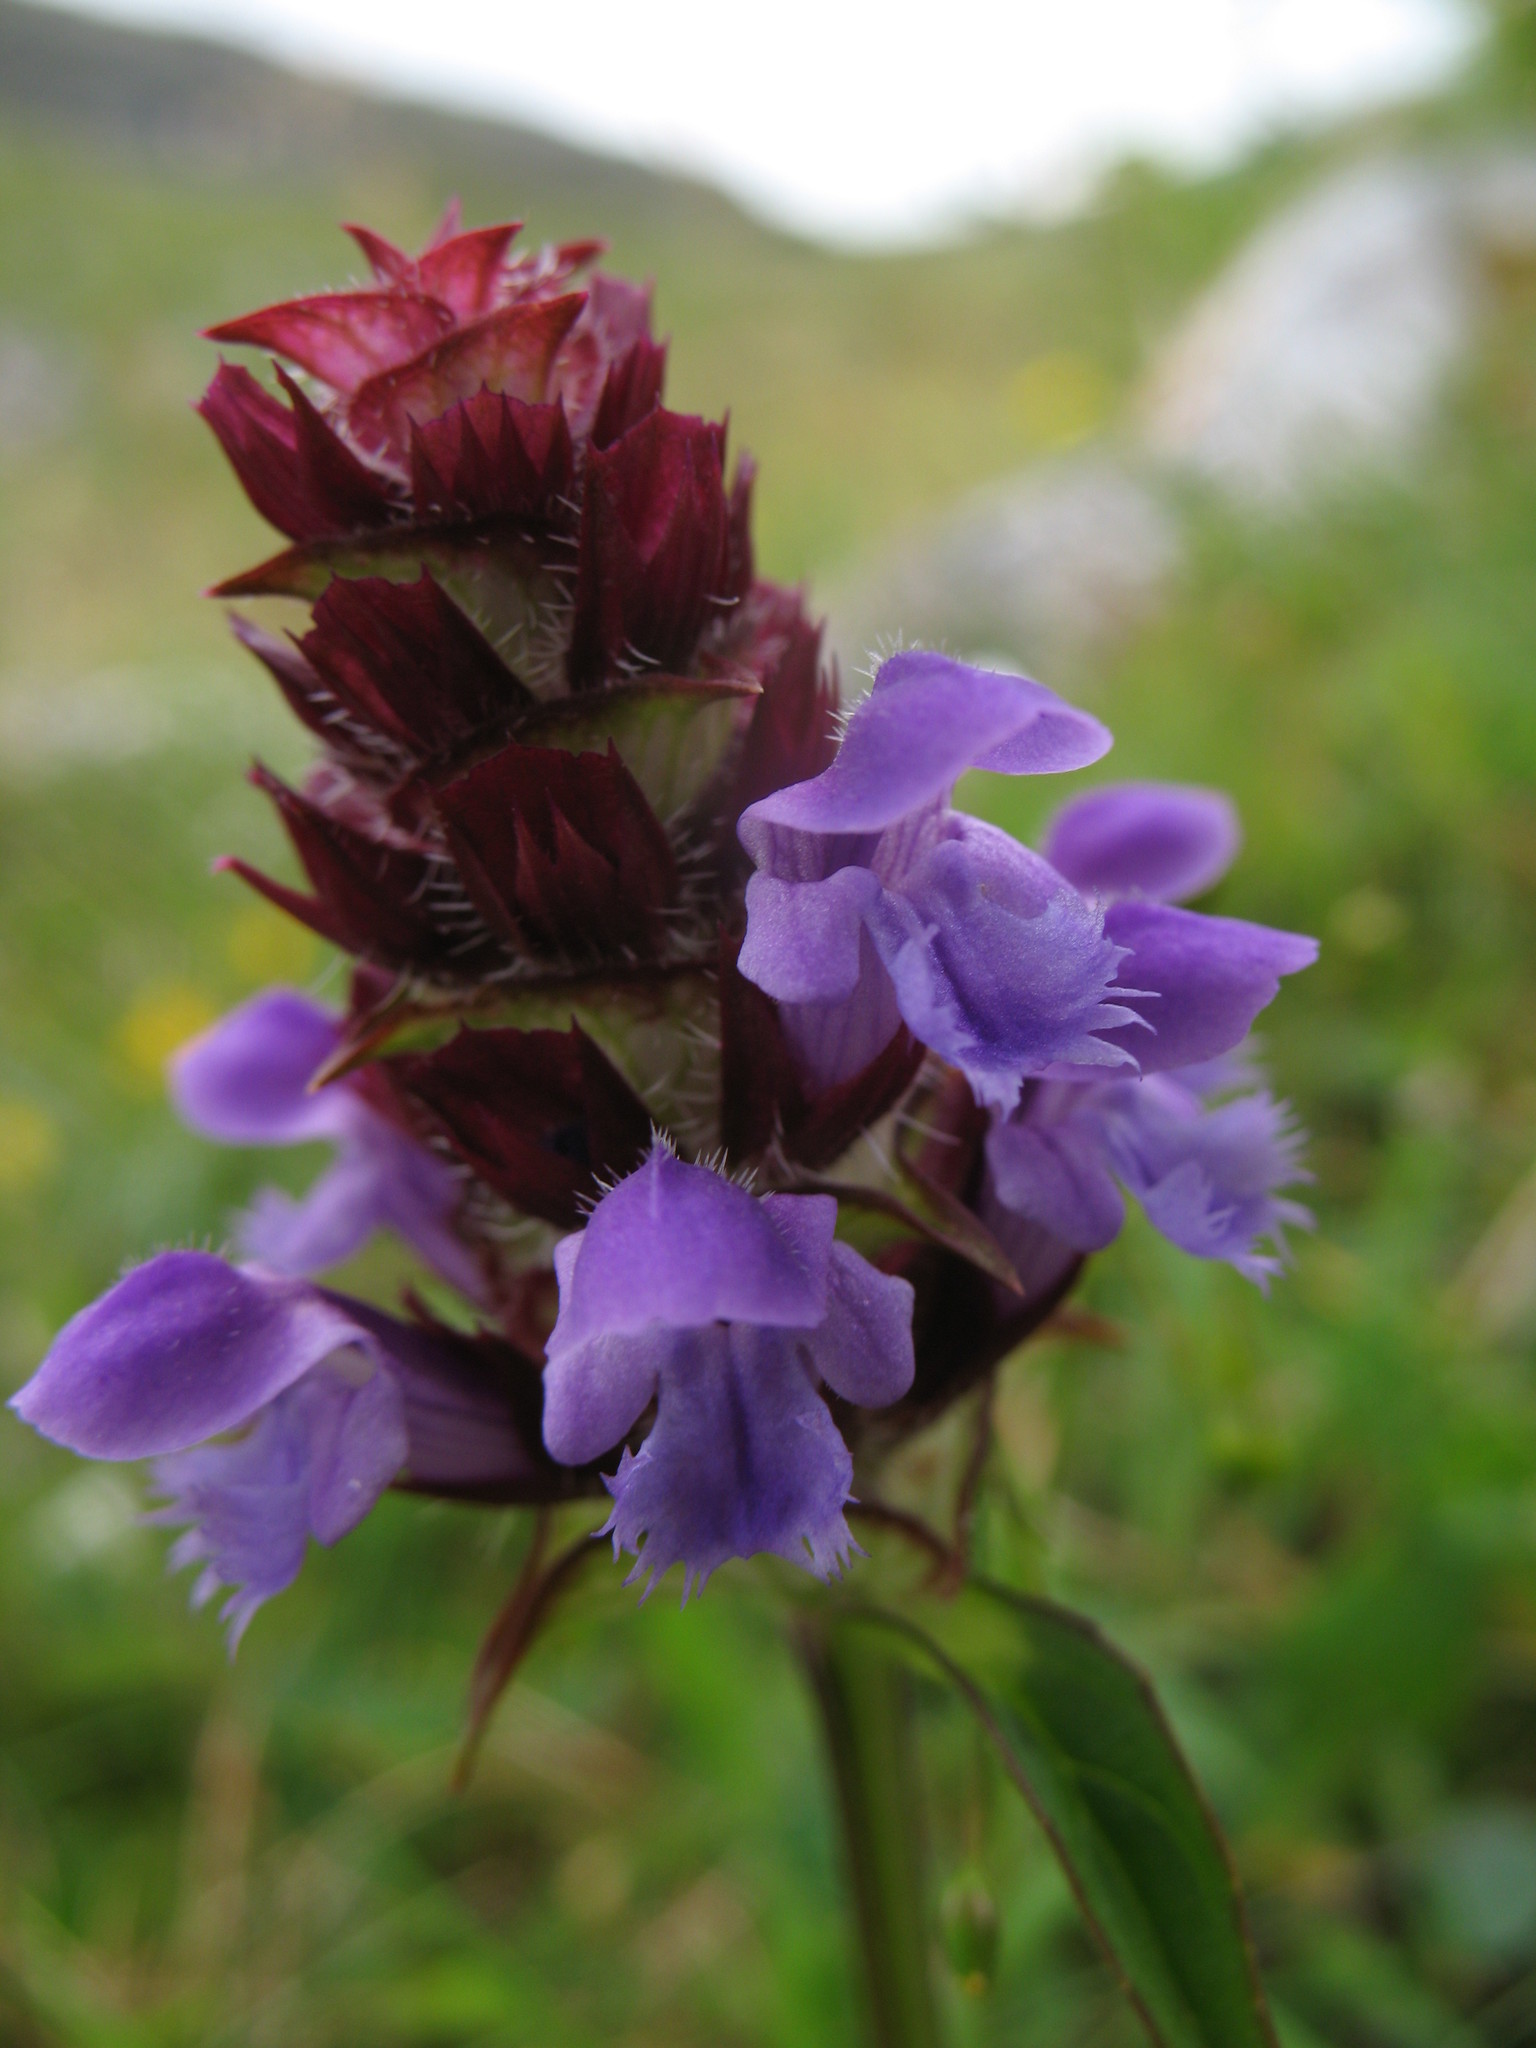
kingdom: Plantae
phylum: Tracheophyta
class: Magnoliopsida
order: Lamiales
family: Lamiaceae
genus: Prunella
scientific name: Prunella vulgaris
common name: Heal-all
